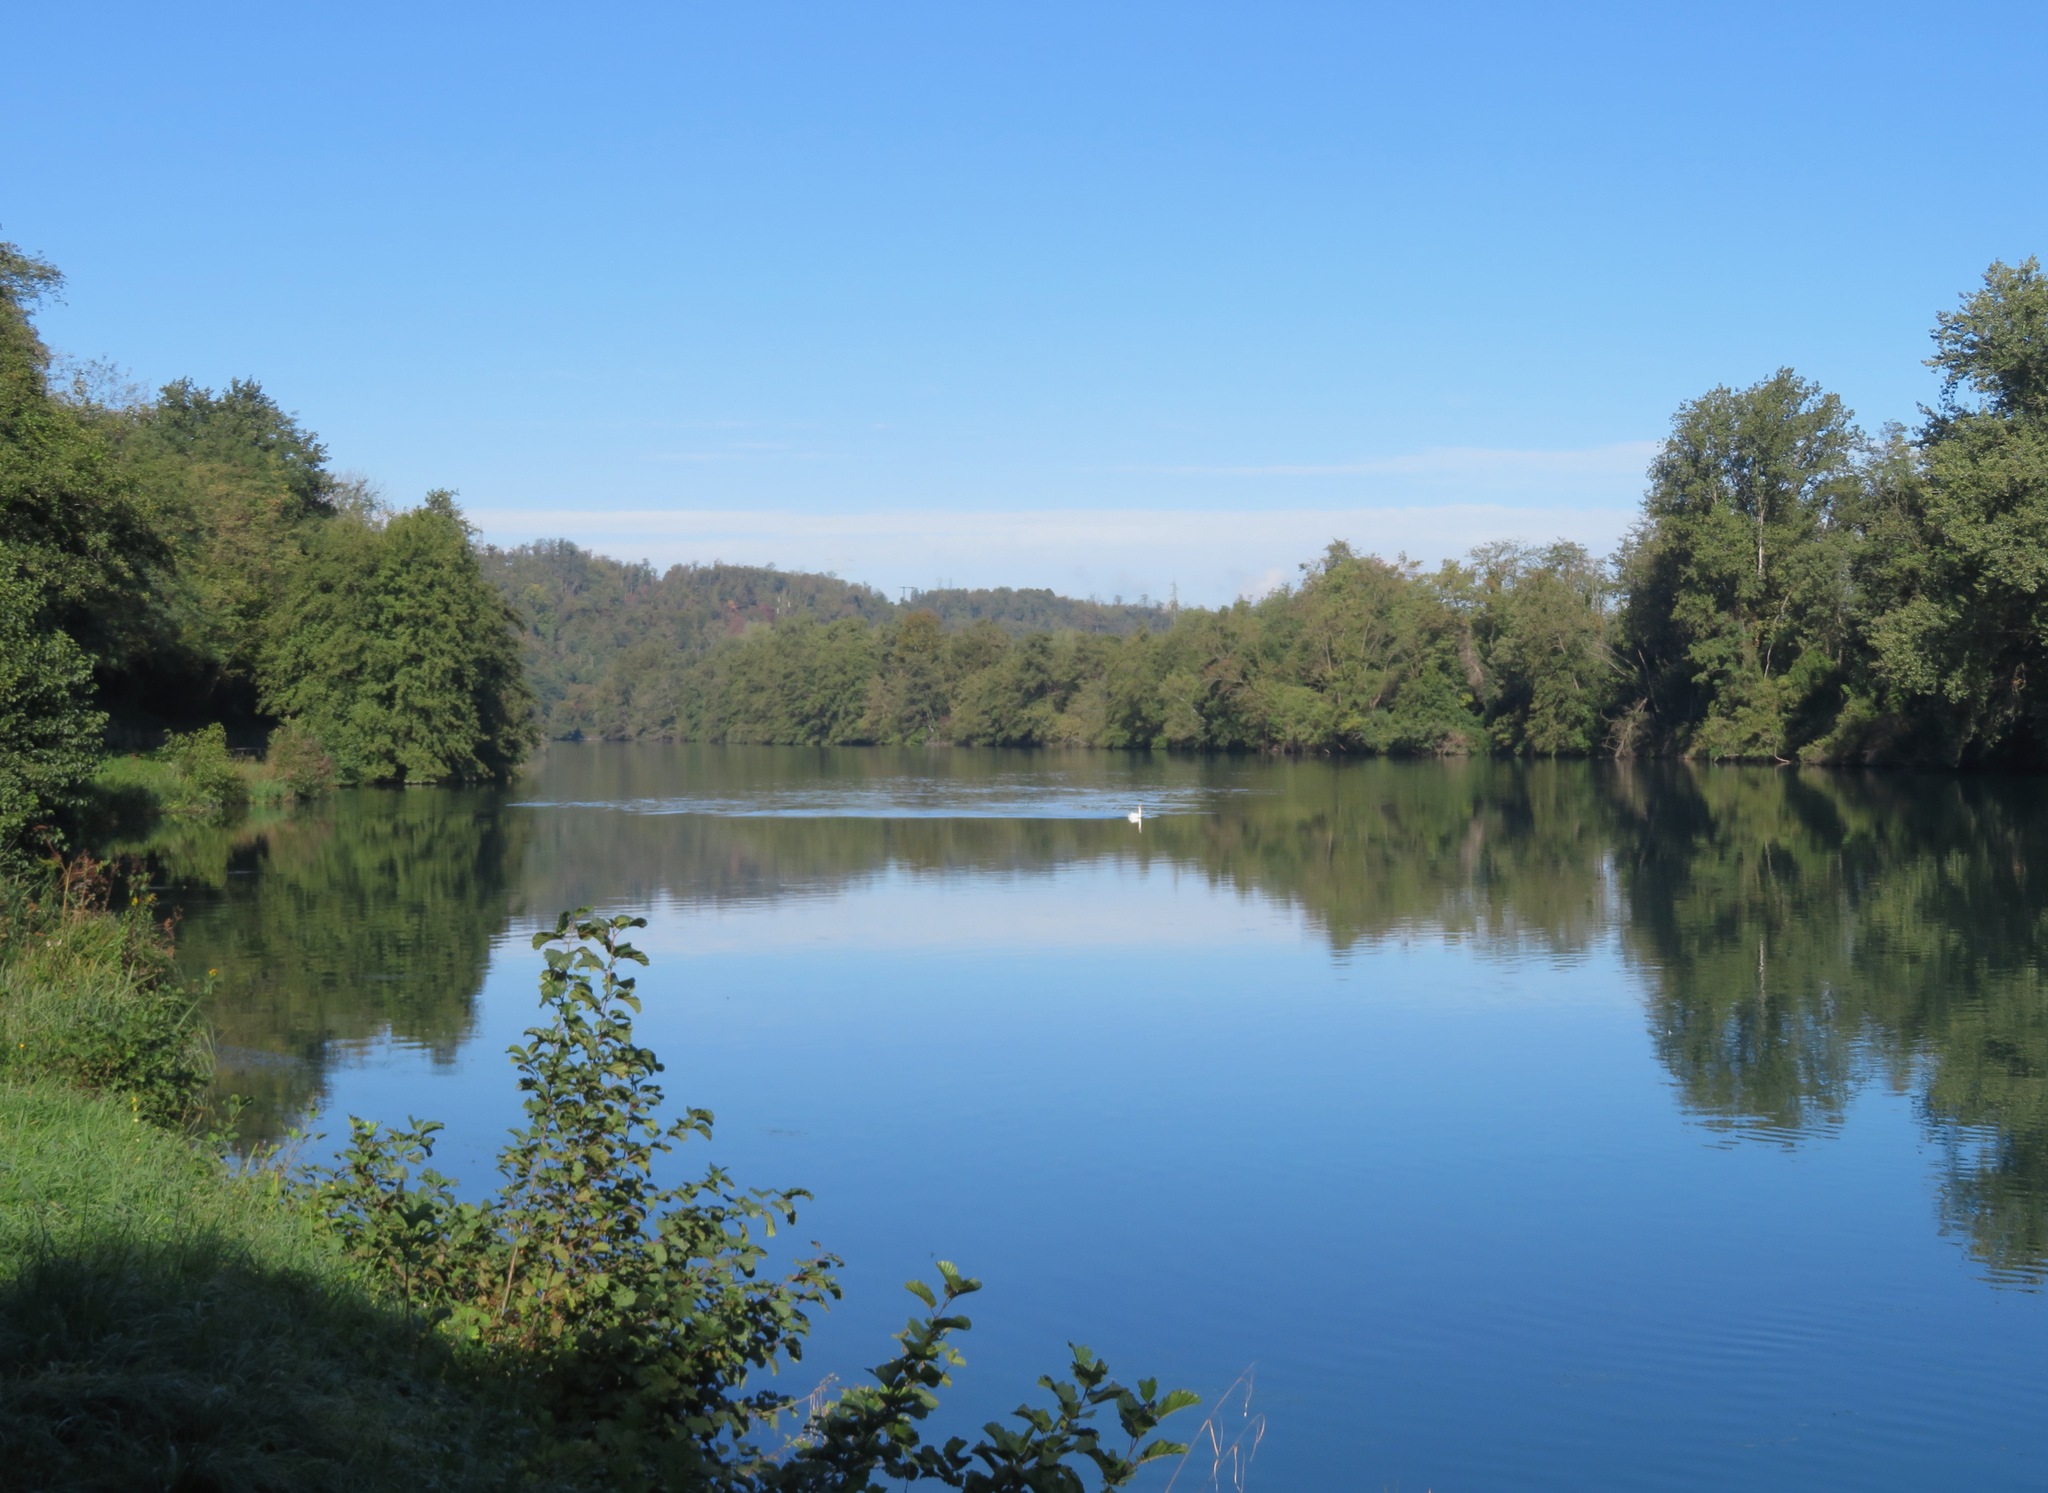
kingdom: Animalia
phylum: Chordata
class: Aves
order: Anseriformes
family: Anatidae
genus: Cygnus
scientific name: Cygnus olor
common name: Mute swan
